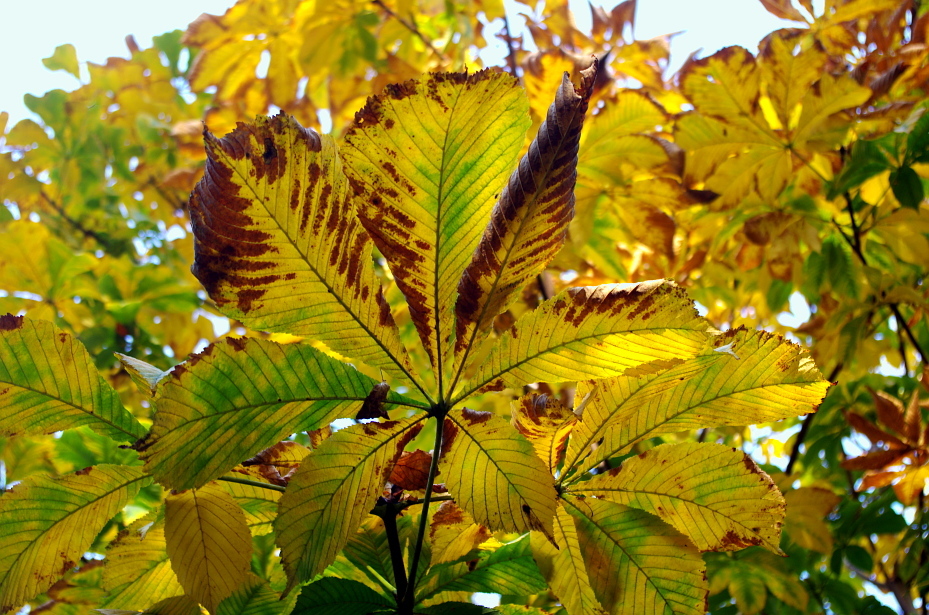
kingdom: Fungi
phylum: Ascomycota
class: Dothideomycetes
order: Botryosphaeriales
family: Phyllostictaceae
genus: Phyllosticta
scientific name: Phyllosticta paviae
